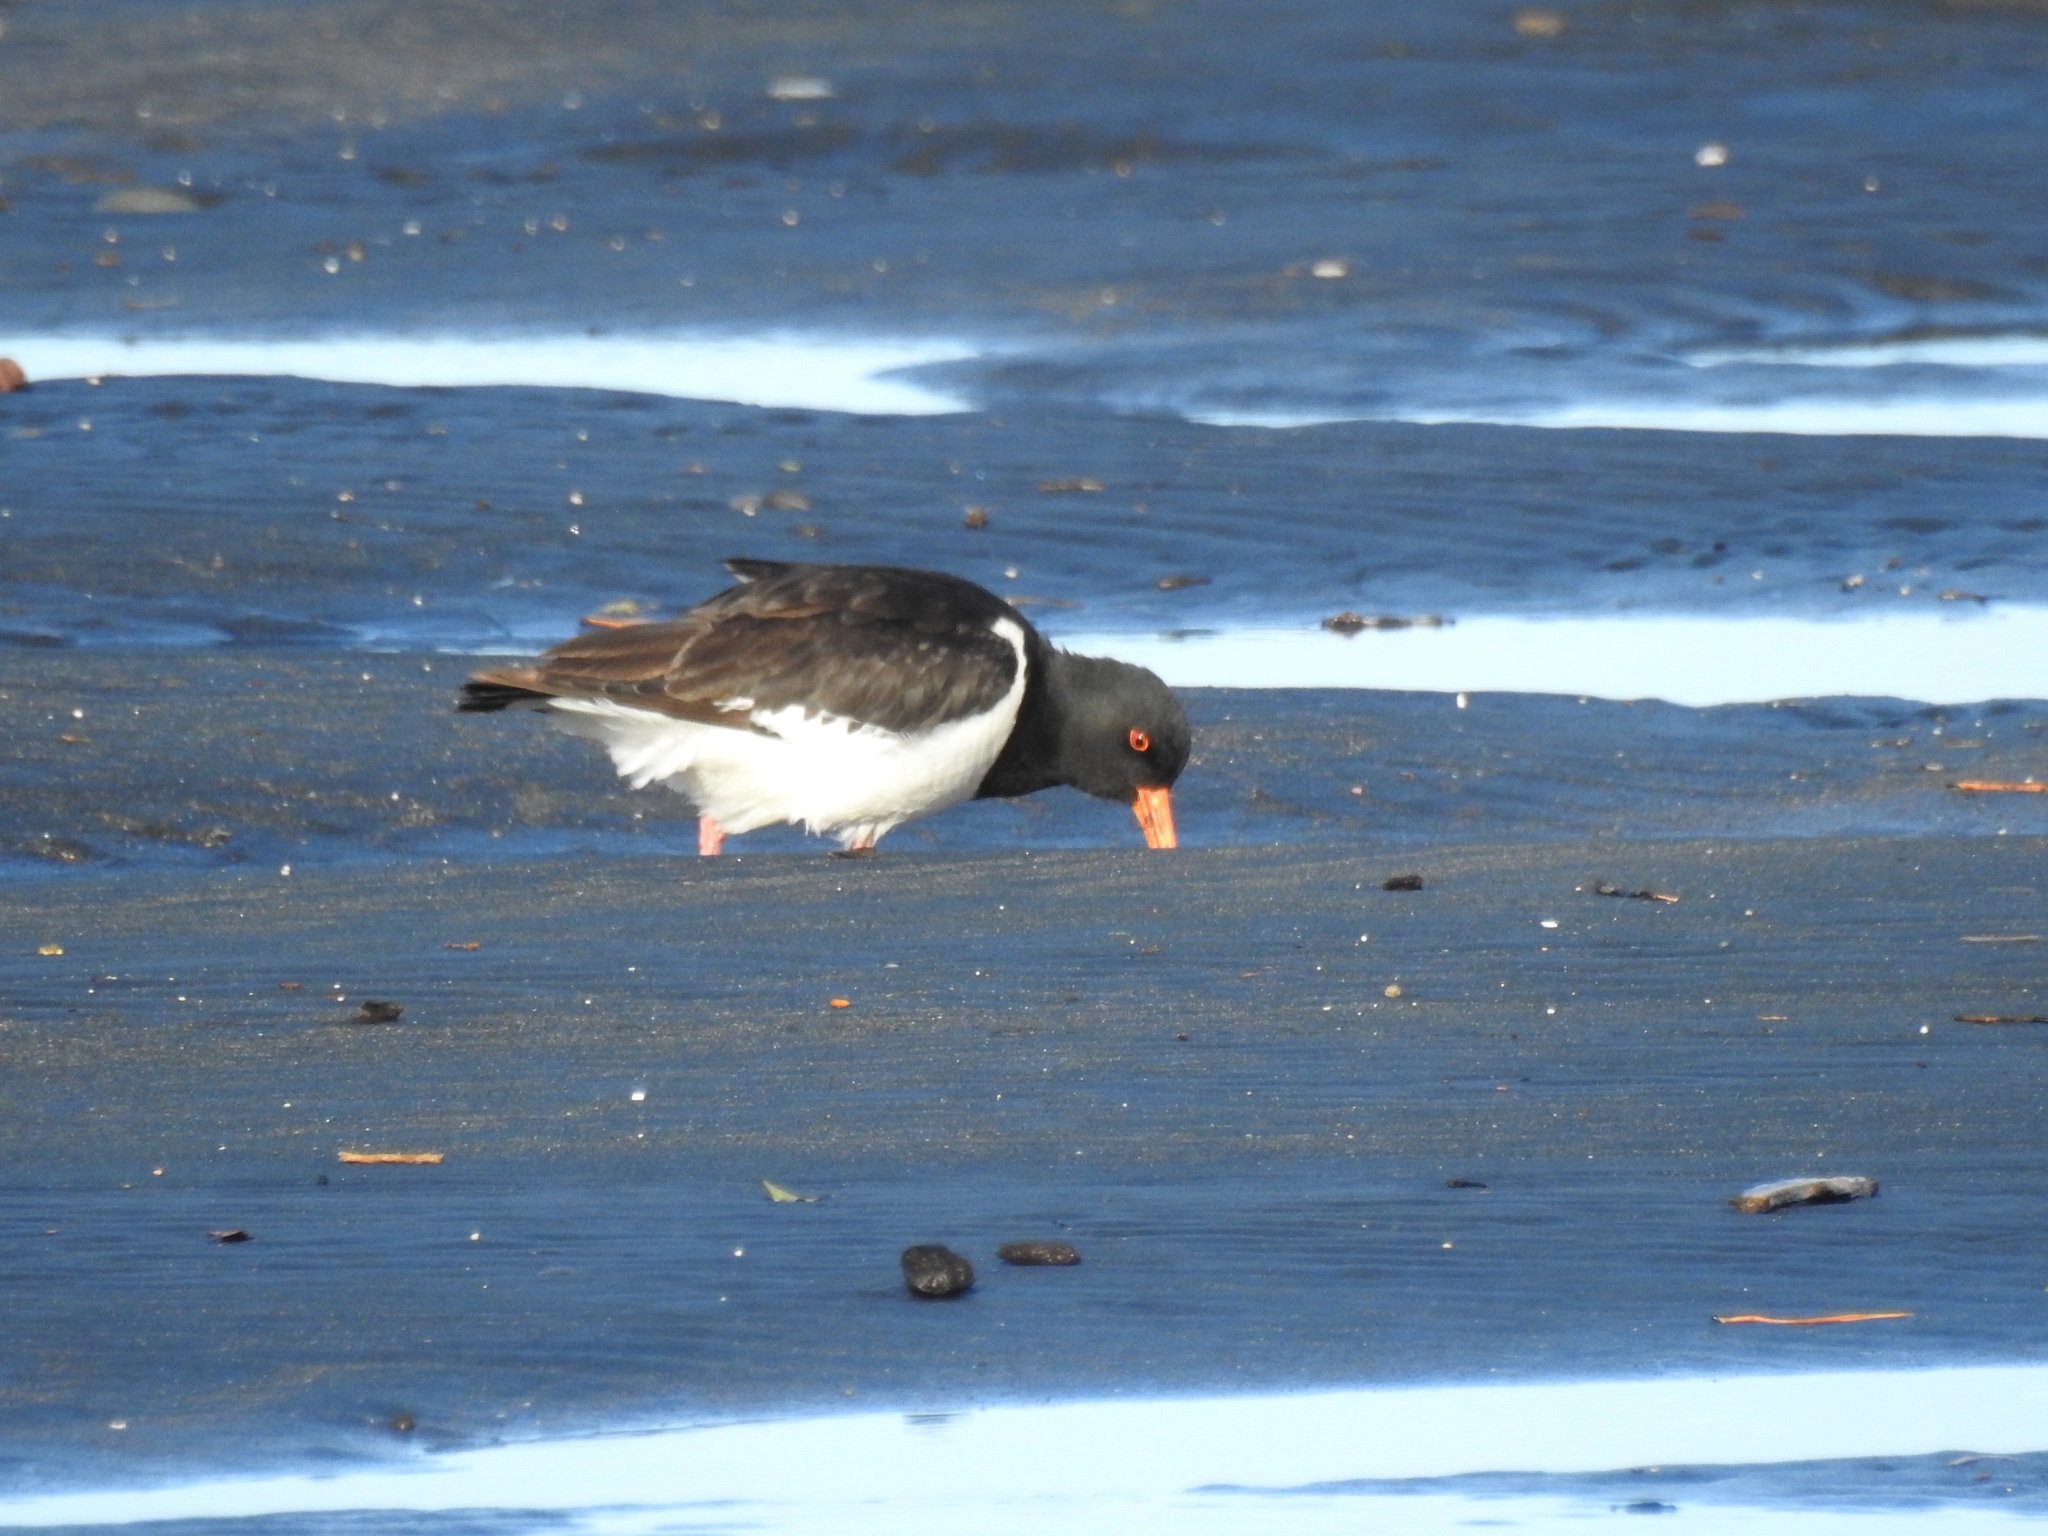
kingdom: Animalia
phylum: Chordata
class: Aves
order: Charadriiformes
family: Haematopodidae
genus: Haematopus
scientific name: Haematopus finschi
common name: South island oystercatcher
